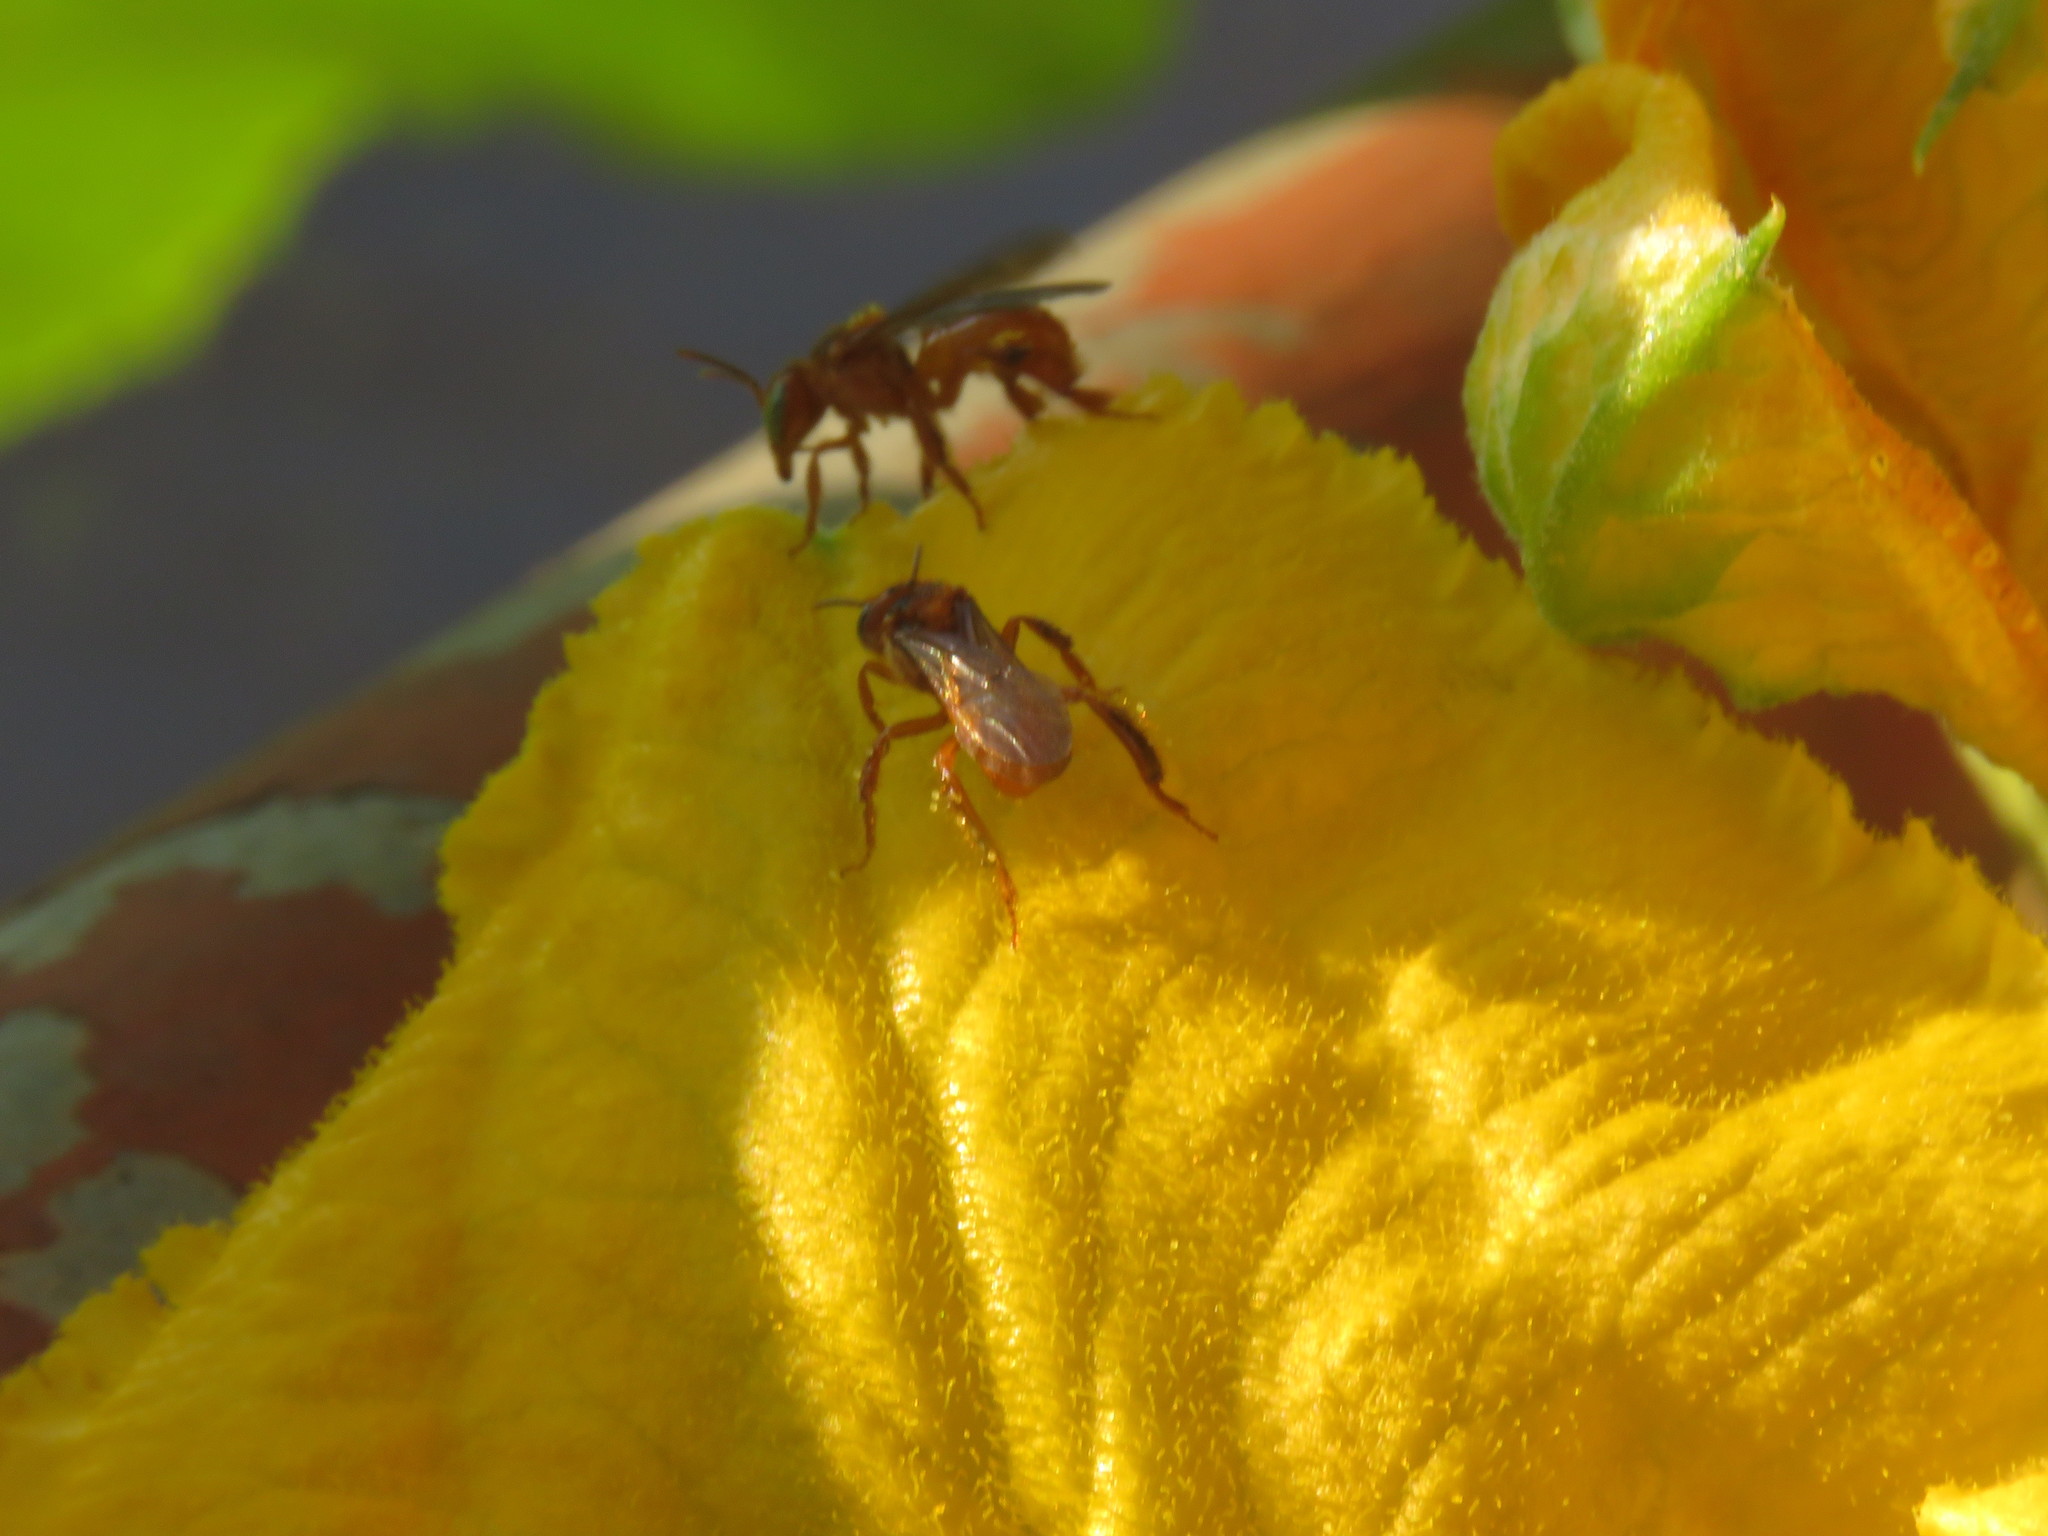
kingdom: Animalia
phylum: Arthropoda
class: Insecta
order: Hymenoptera
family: Apidae
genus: Trigona
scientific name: Trigona chanchamayoensis
